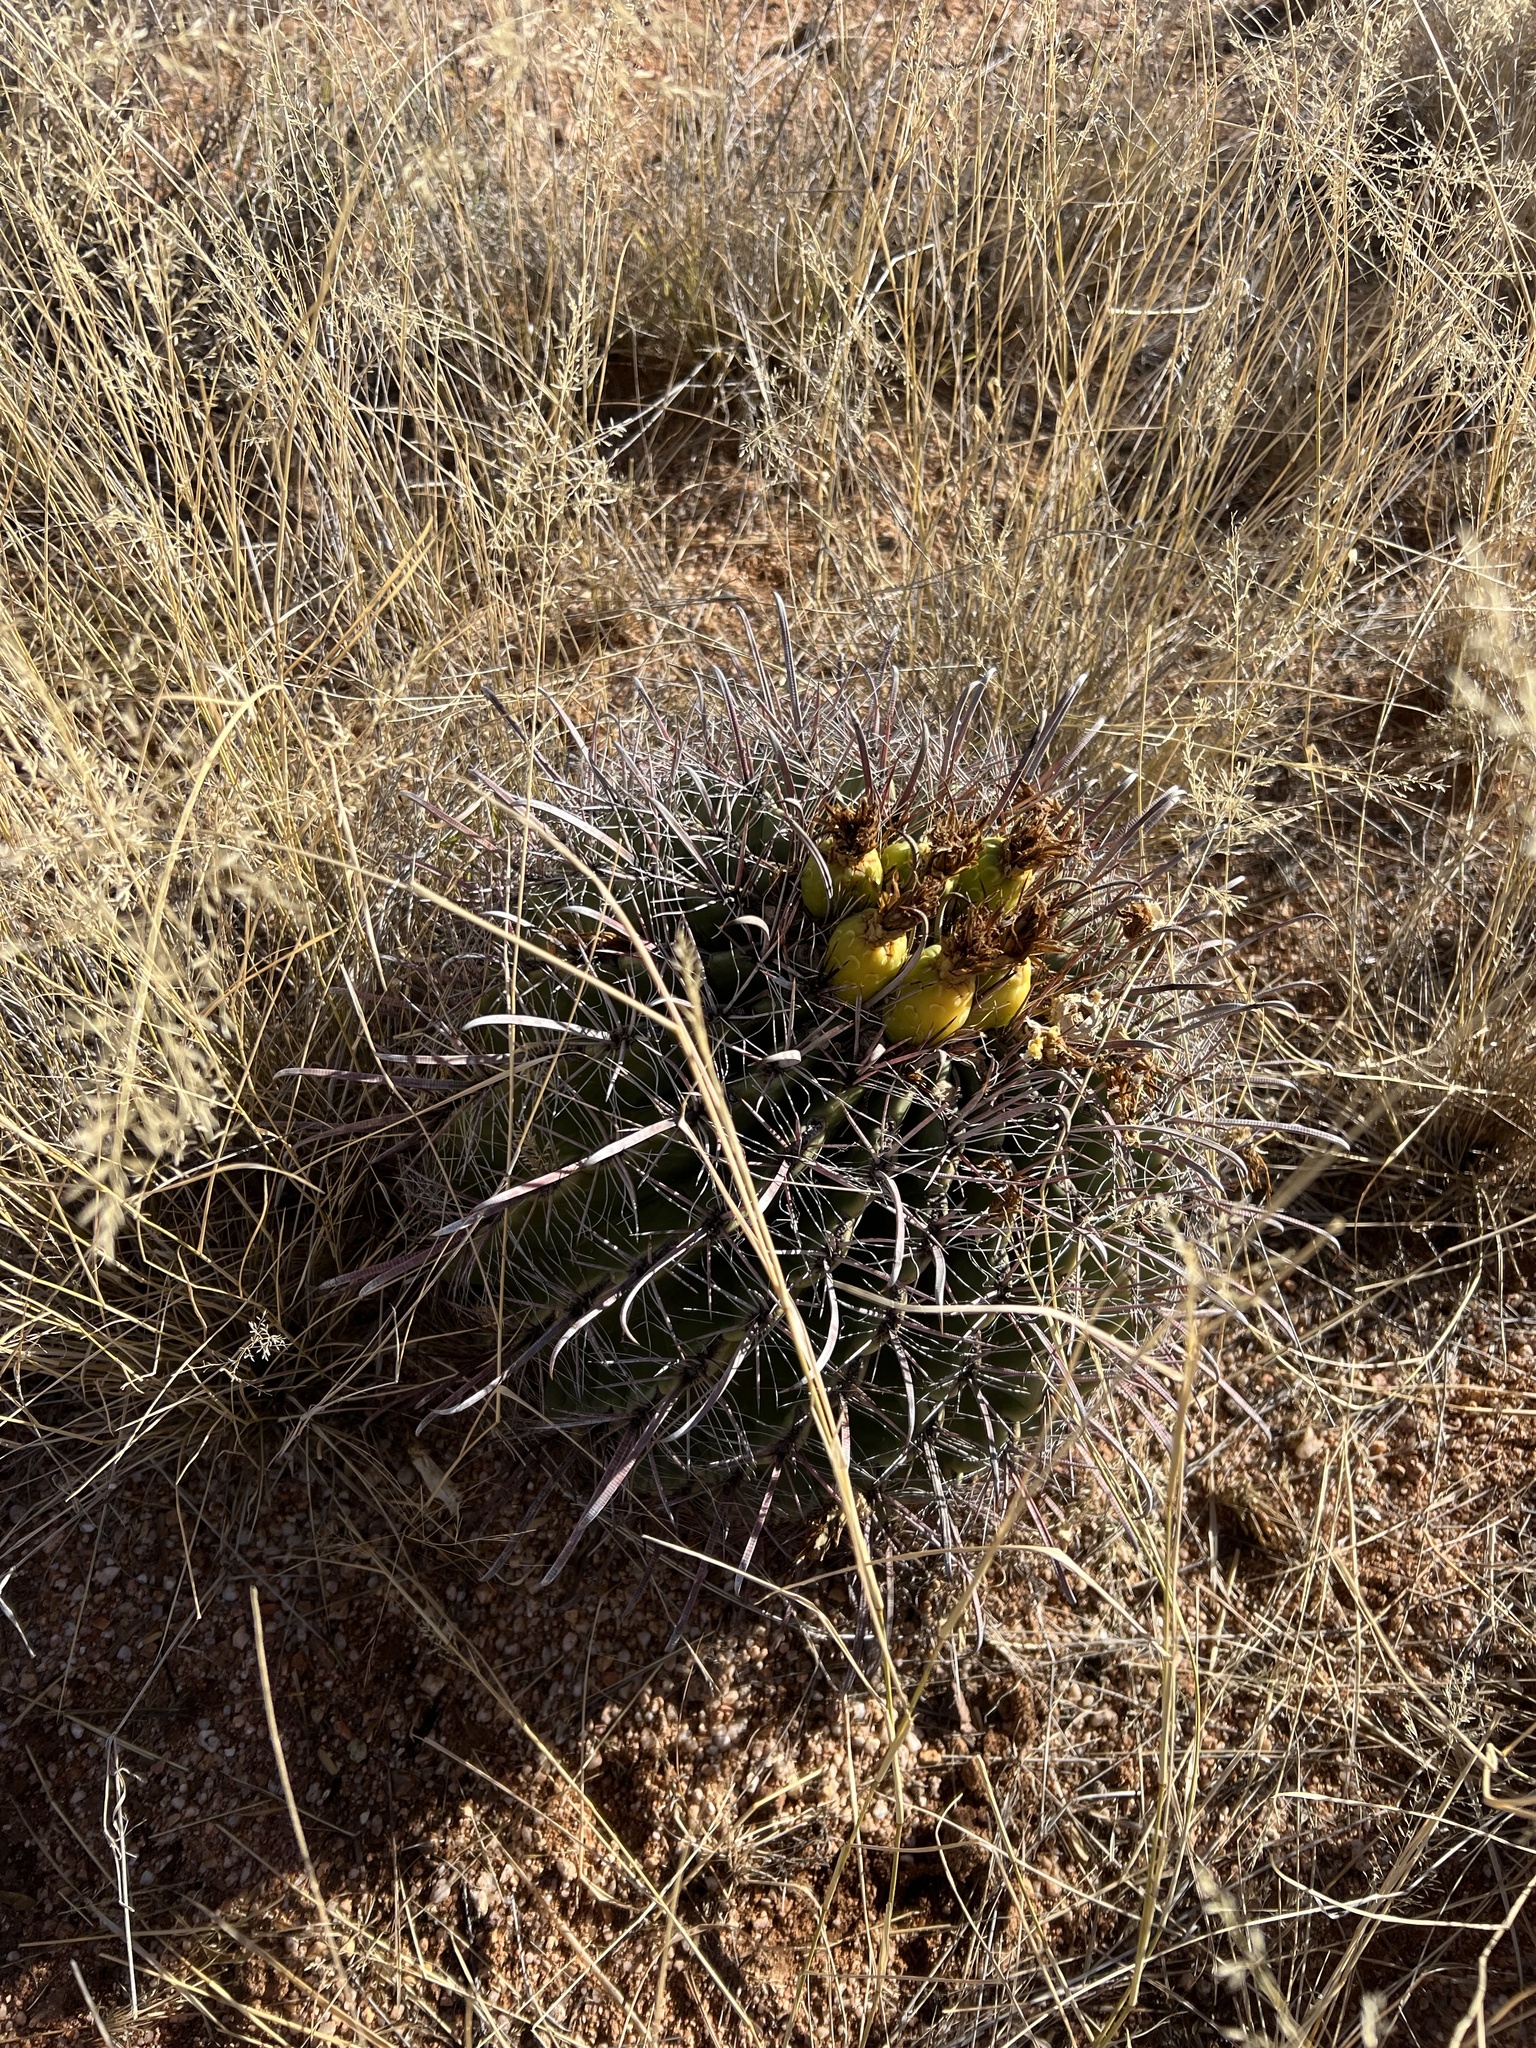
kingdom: Plantae
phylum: Tracheophyta
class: Magnoliopsida
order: Caryophyllales
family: Cactaceae
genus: Ferocactus
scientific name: Ferocactus wislizeni
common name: Candy barrel cactus
